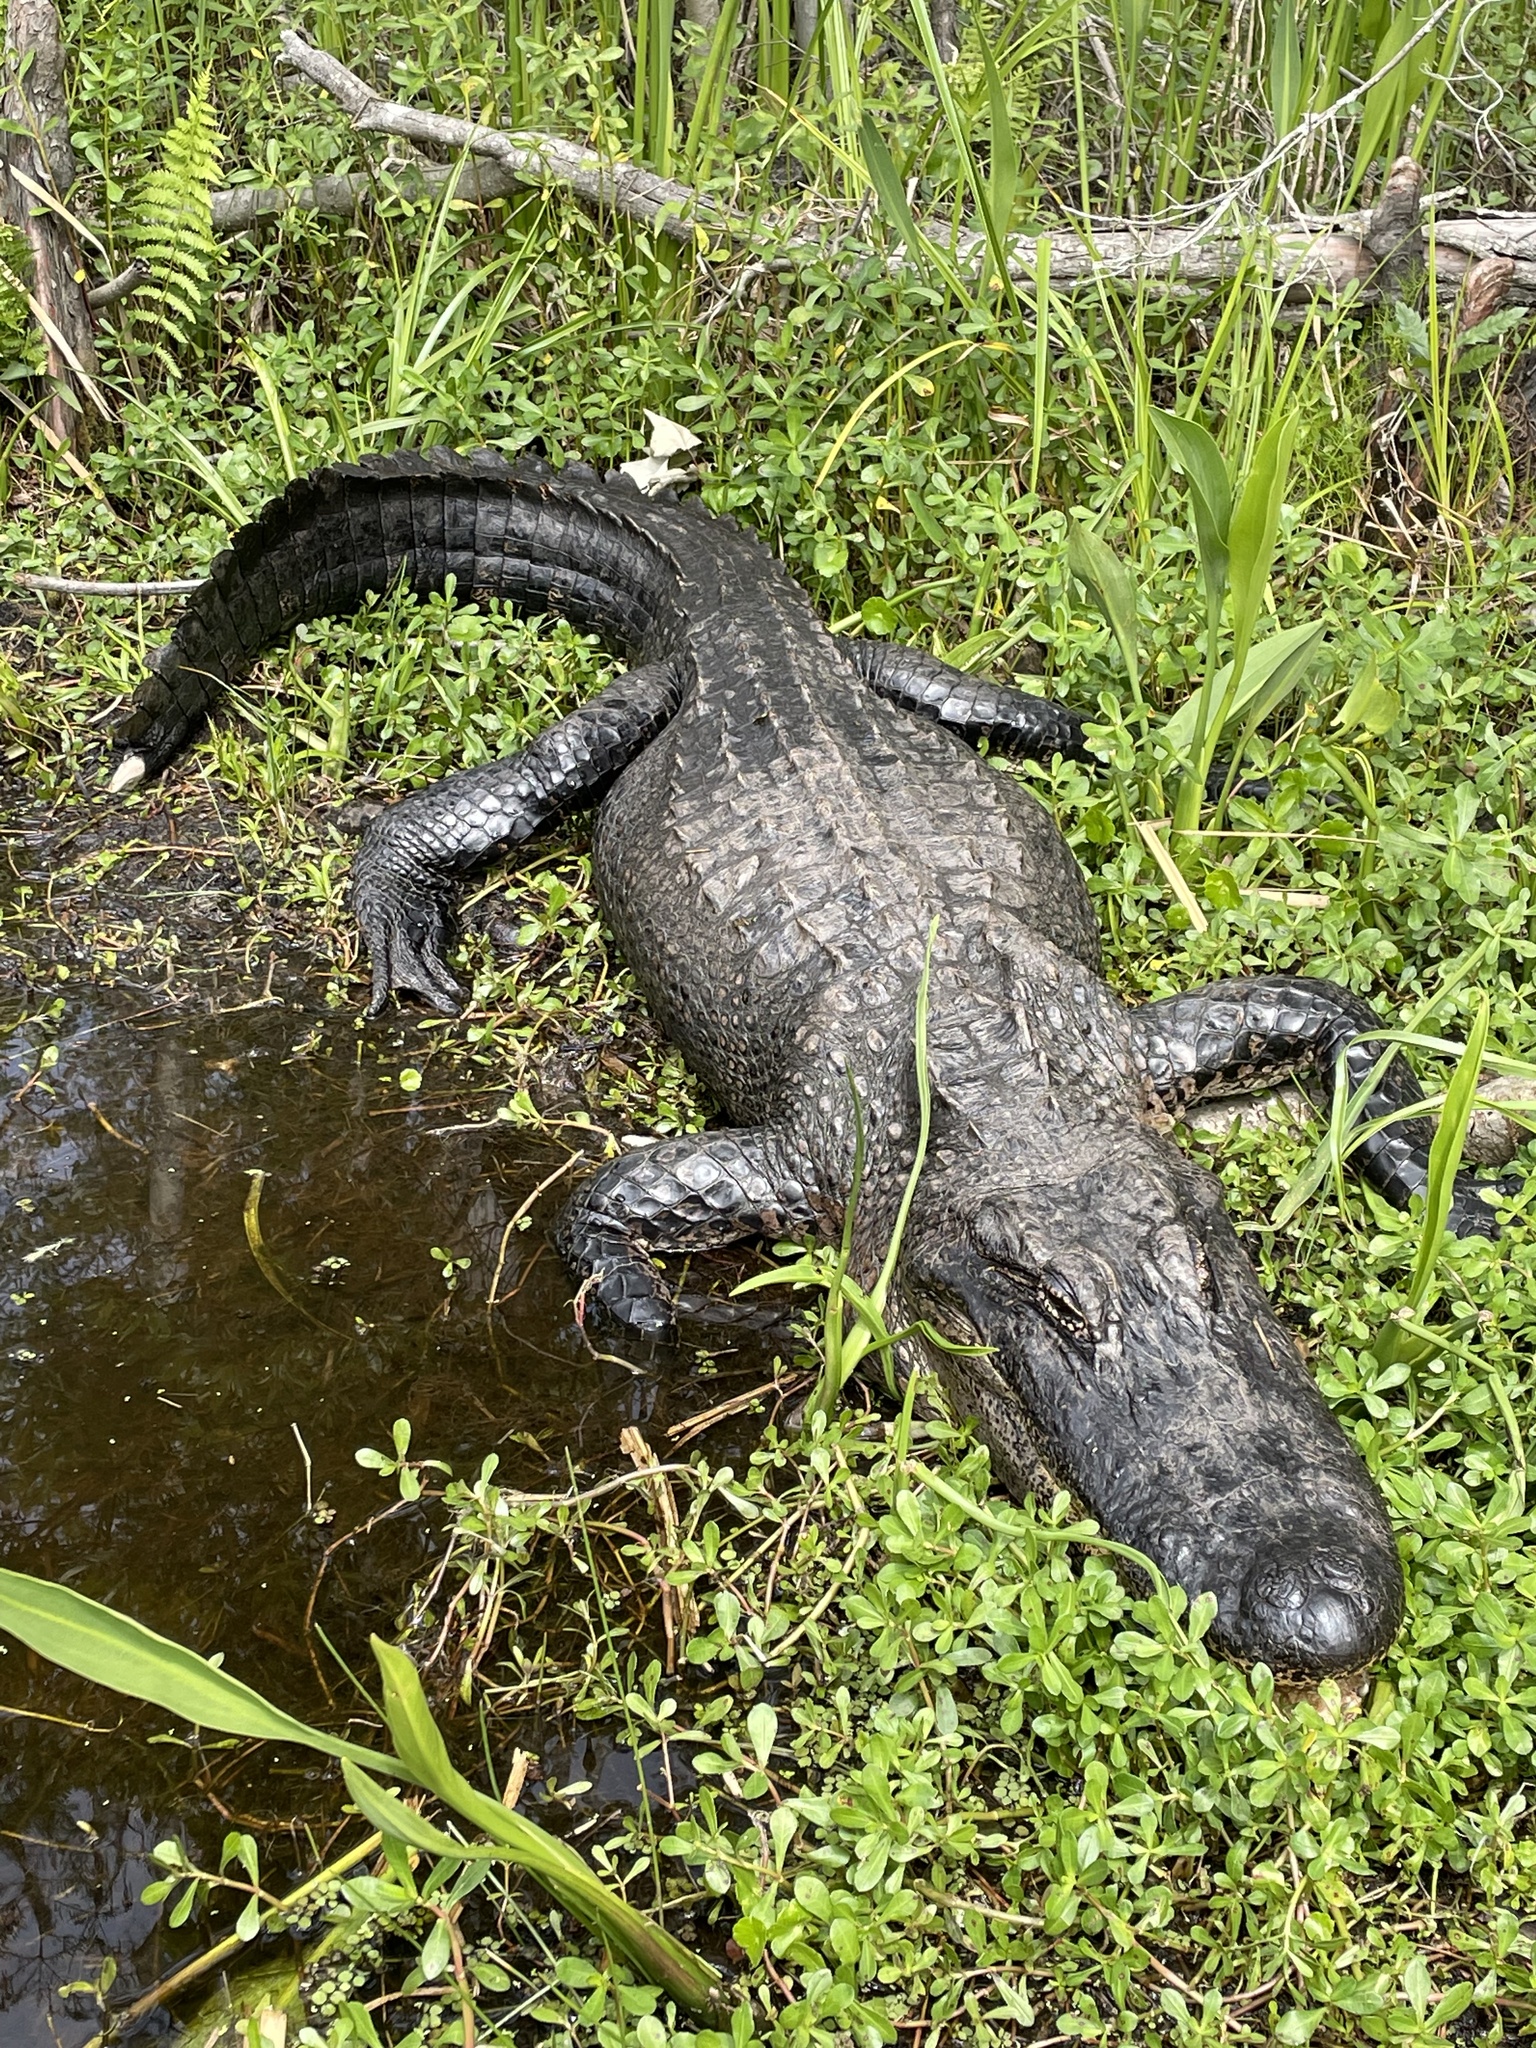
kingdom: Animalia
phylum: Chordata
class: Crocodylia
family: Alligatoridae
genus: Alligator
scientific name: Alligator mississippiensis
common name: American alligator
